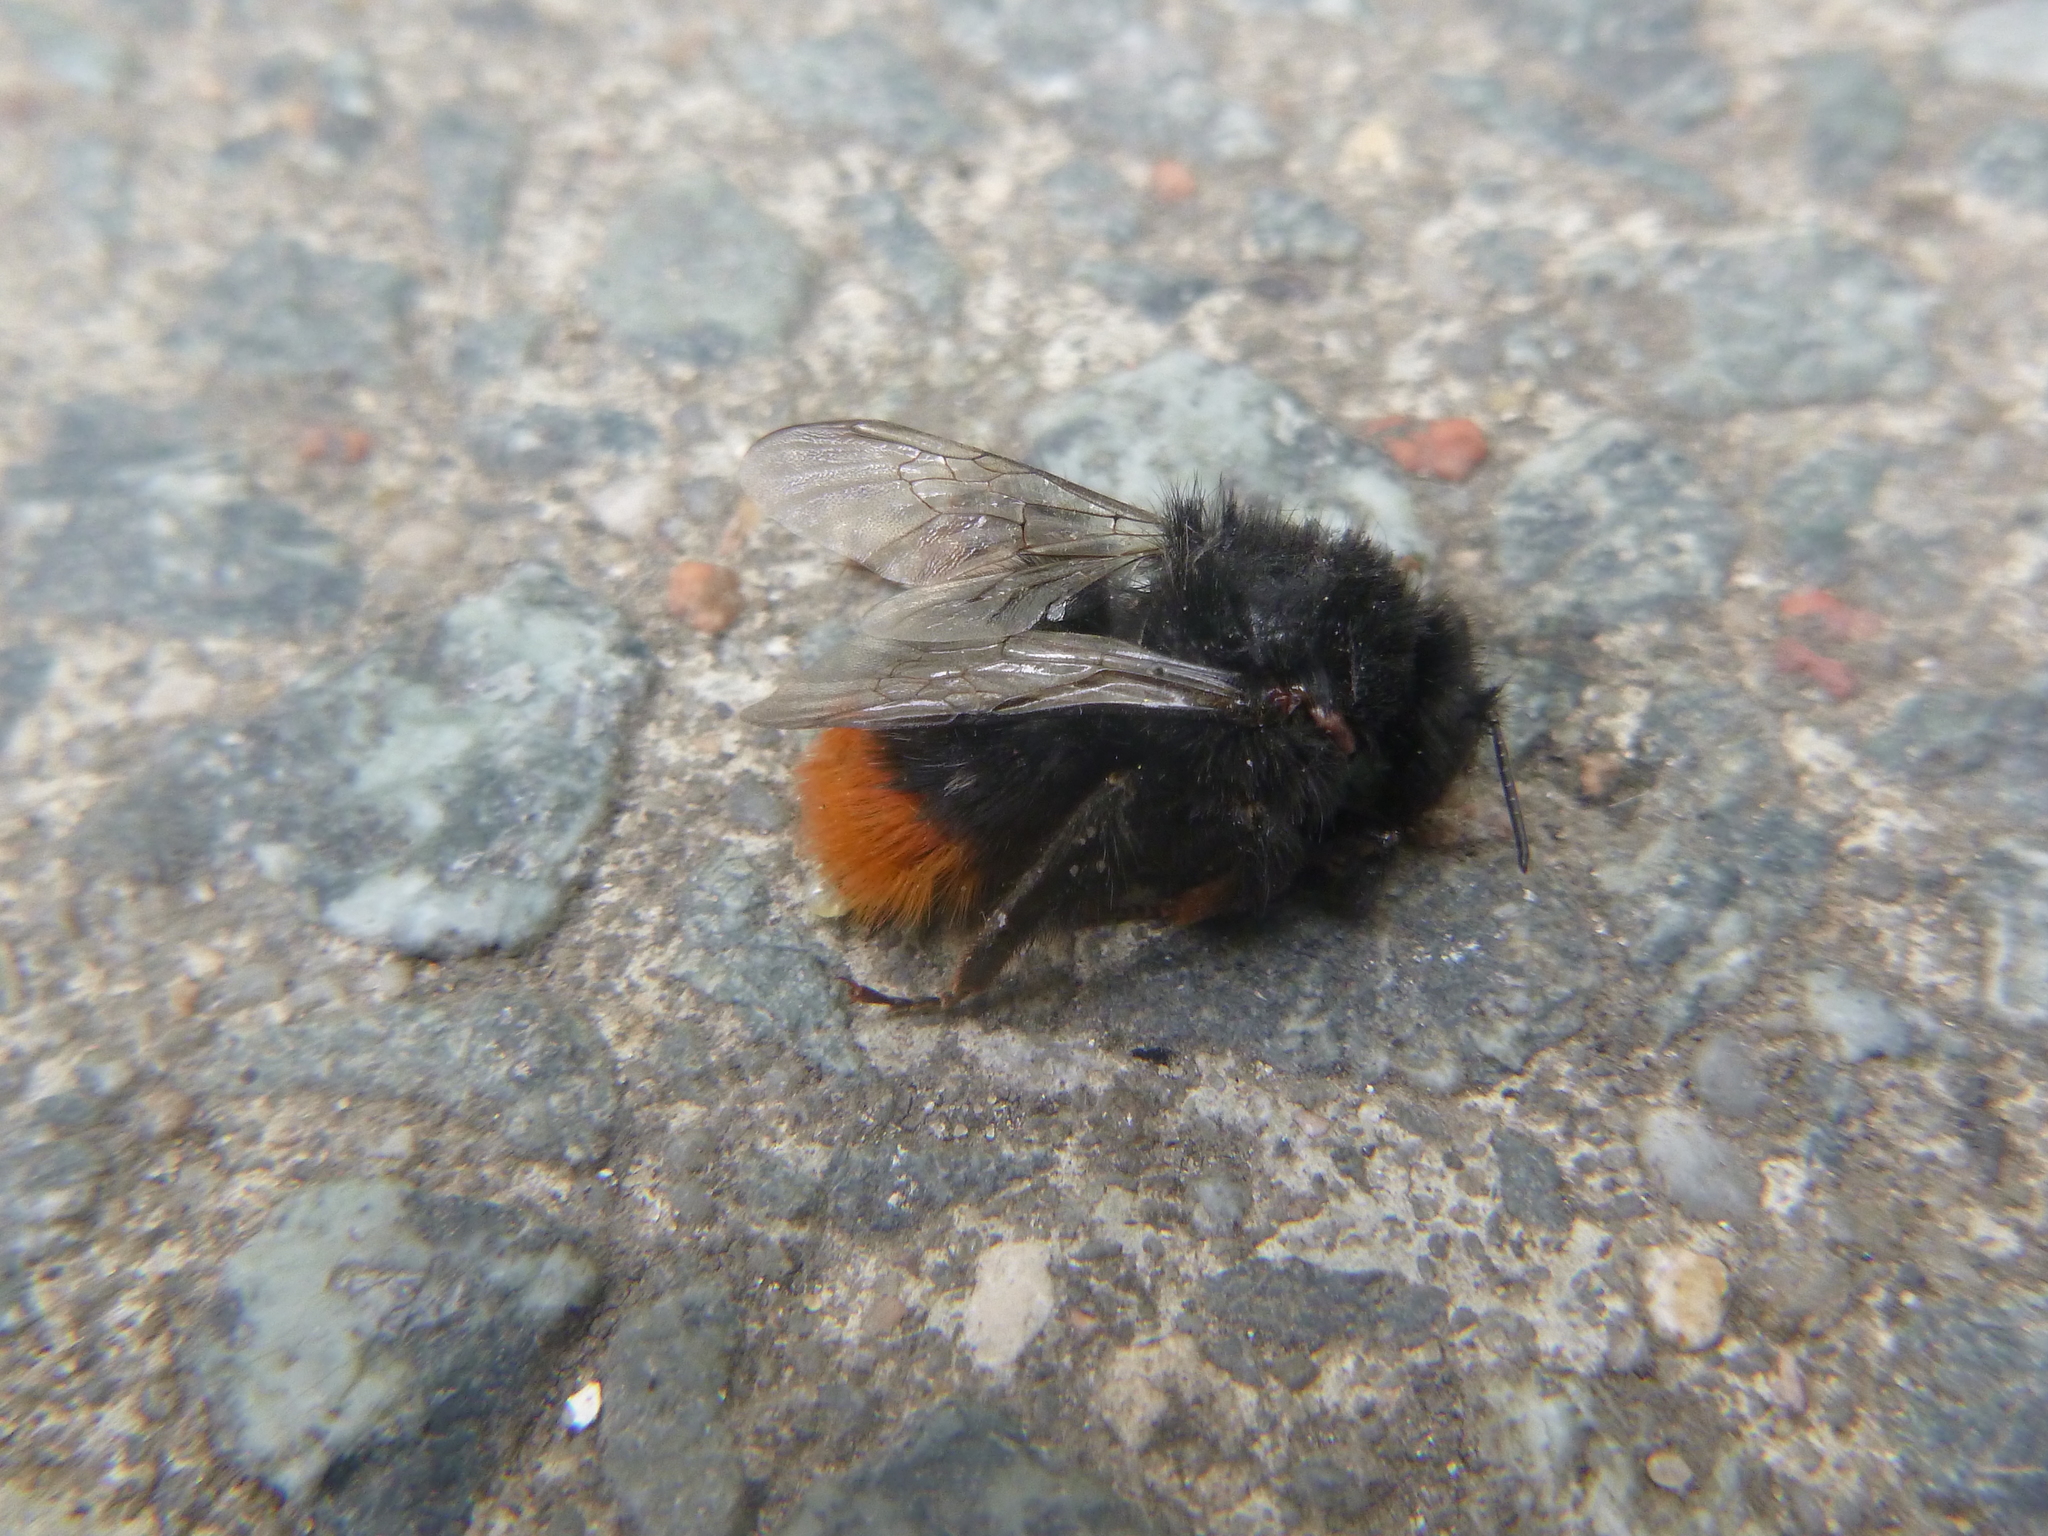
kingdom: Animalia
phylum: Arthropoda
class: Insecta
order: Hymenoptera
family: Apidae
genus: Bombus
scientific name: Bombus lapidarius
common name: Large red-tailed humble-bee
